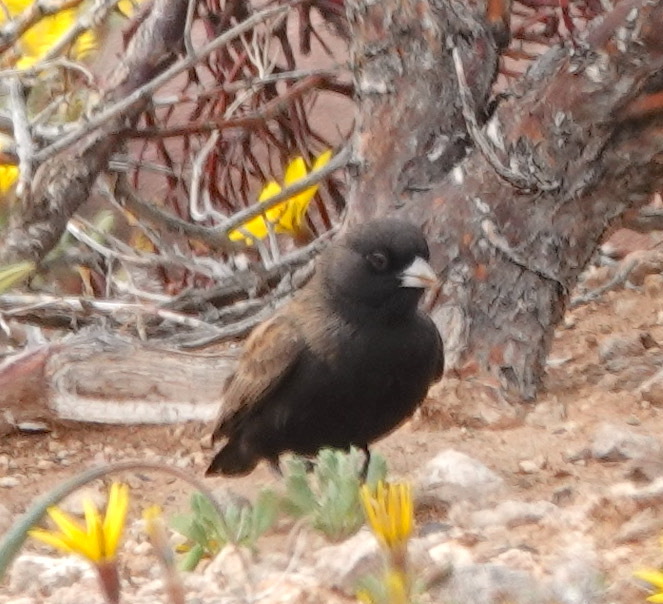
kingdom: Animalia
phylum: Chordata
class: Aves
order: Passeriformes
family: Alaudidae
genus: Eremopterix
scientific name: Eremopterix australis
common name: Black-eared sparrow-lark
